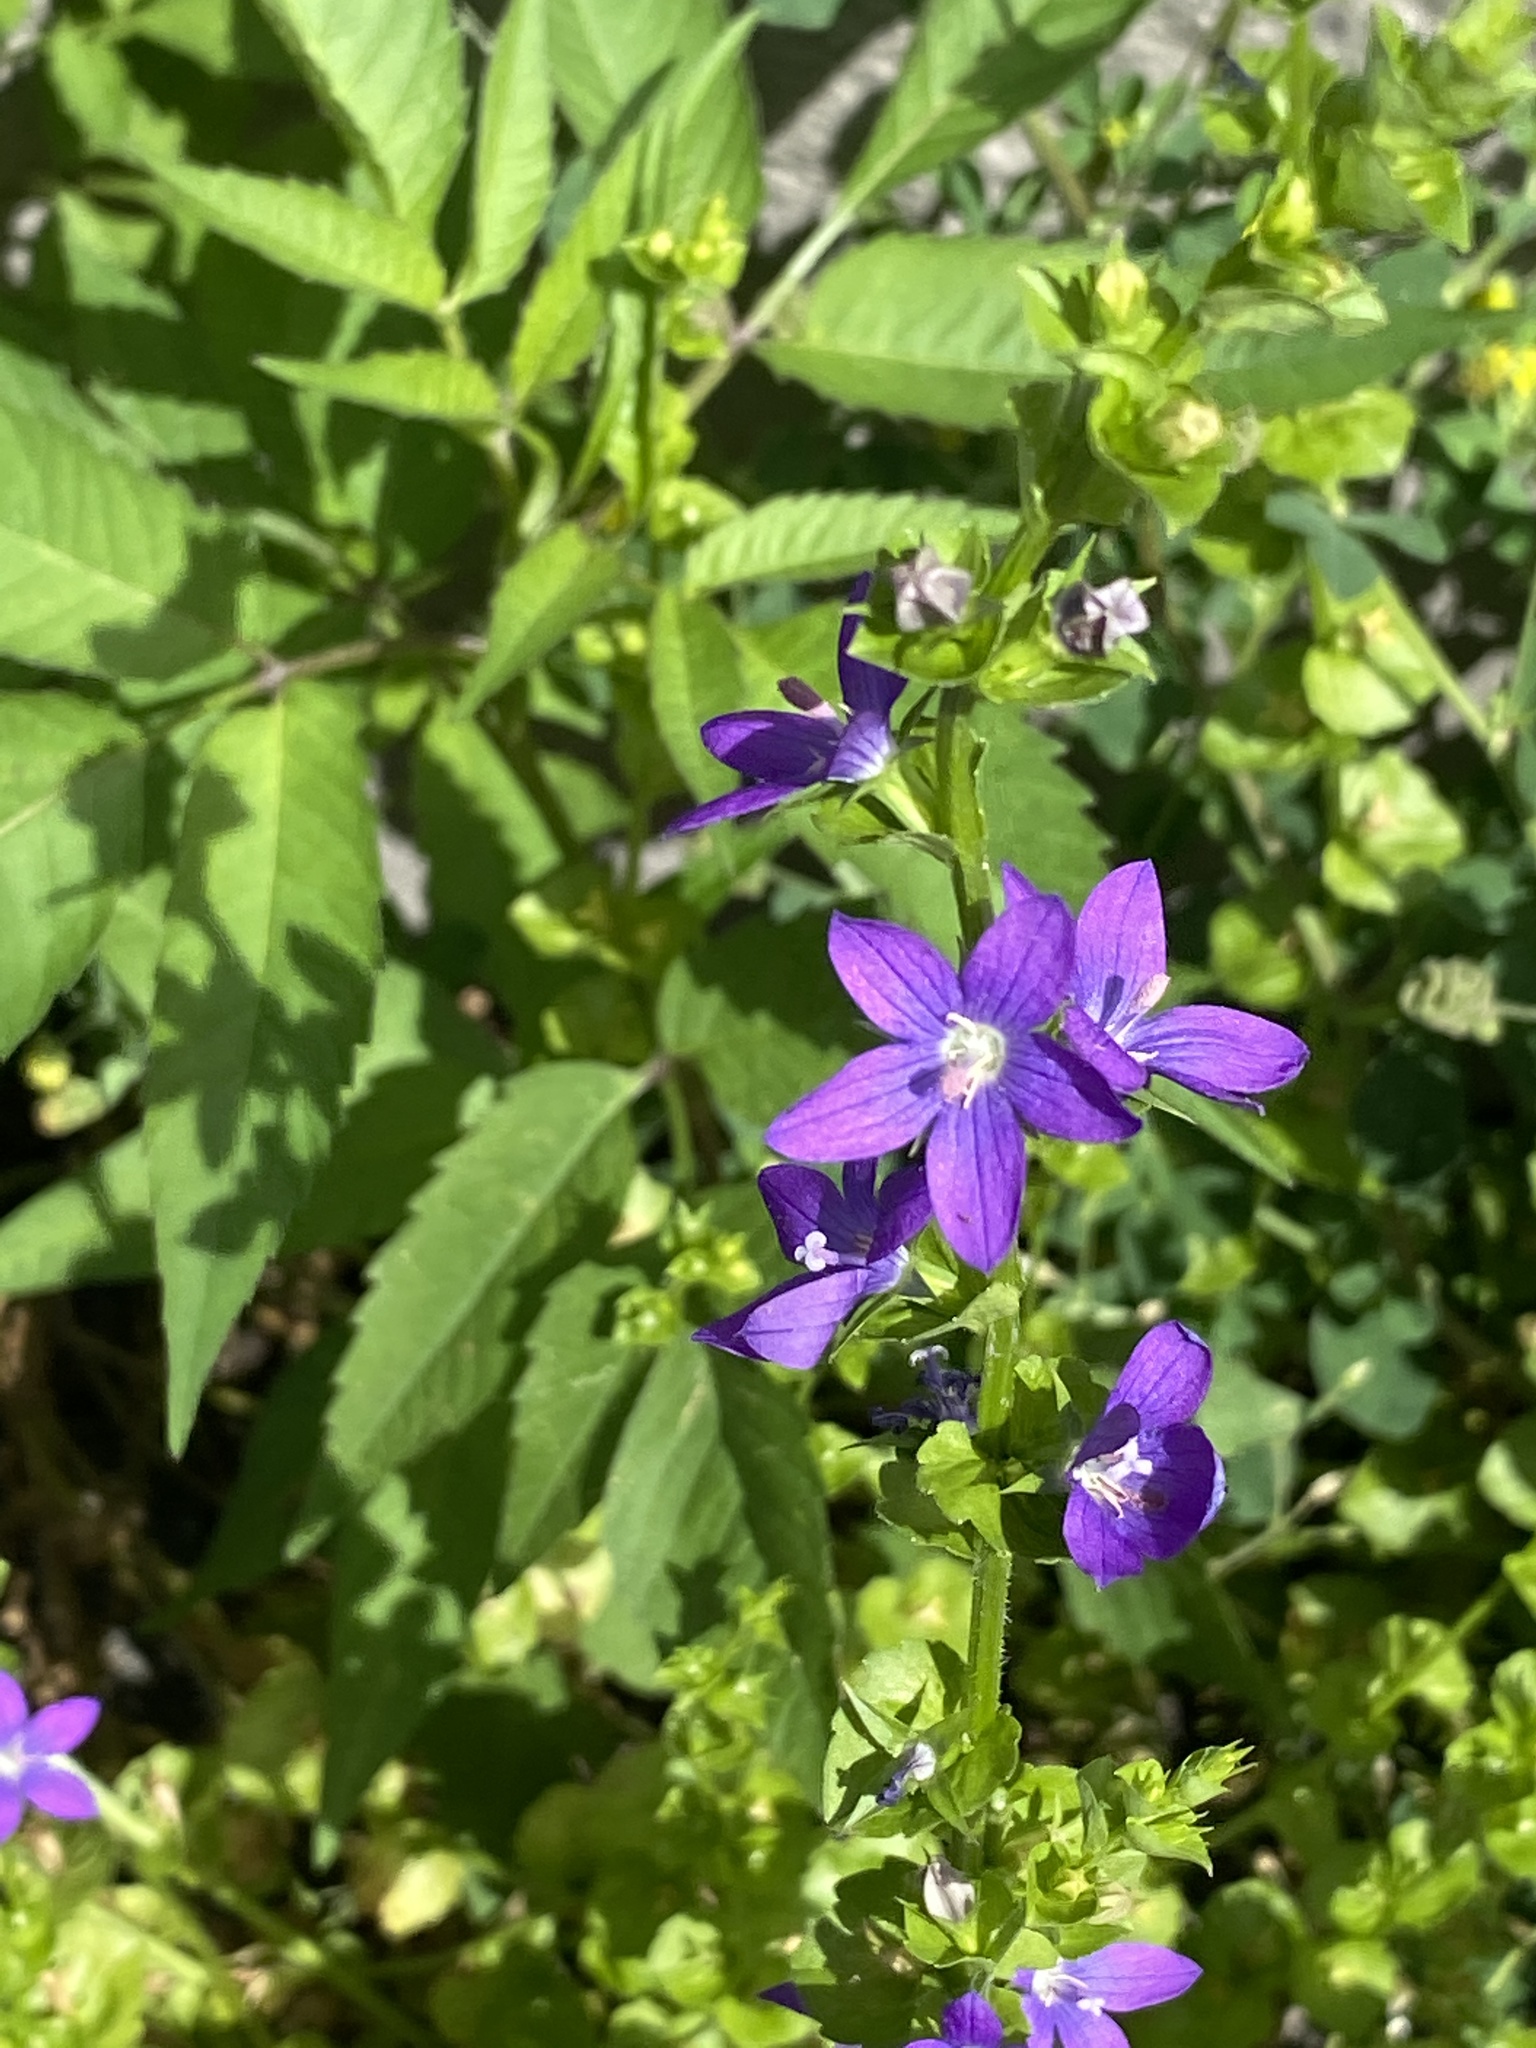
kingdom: Plantae
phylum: Tracheophyta
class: Magnoliopsida
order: Asterales
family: Campanulaceae
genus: Triodanis
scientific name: Triodanis perfoliata
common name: Clasping venus' looking-glass
